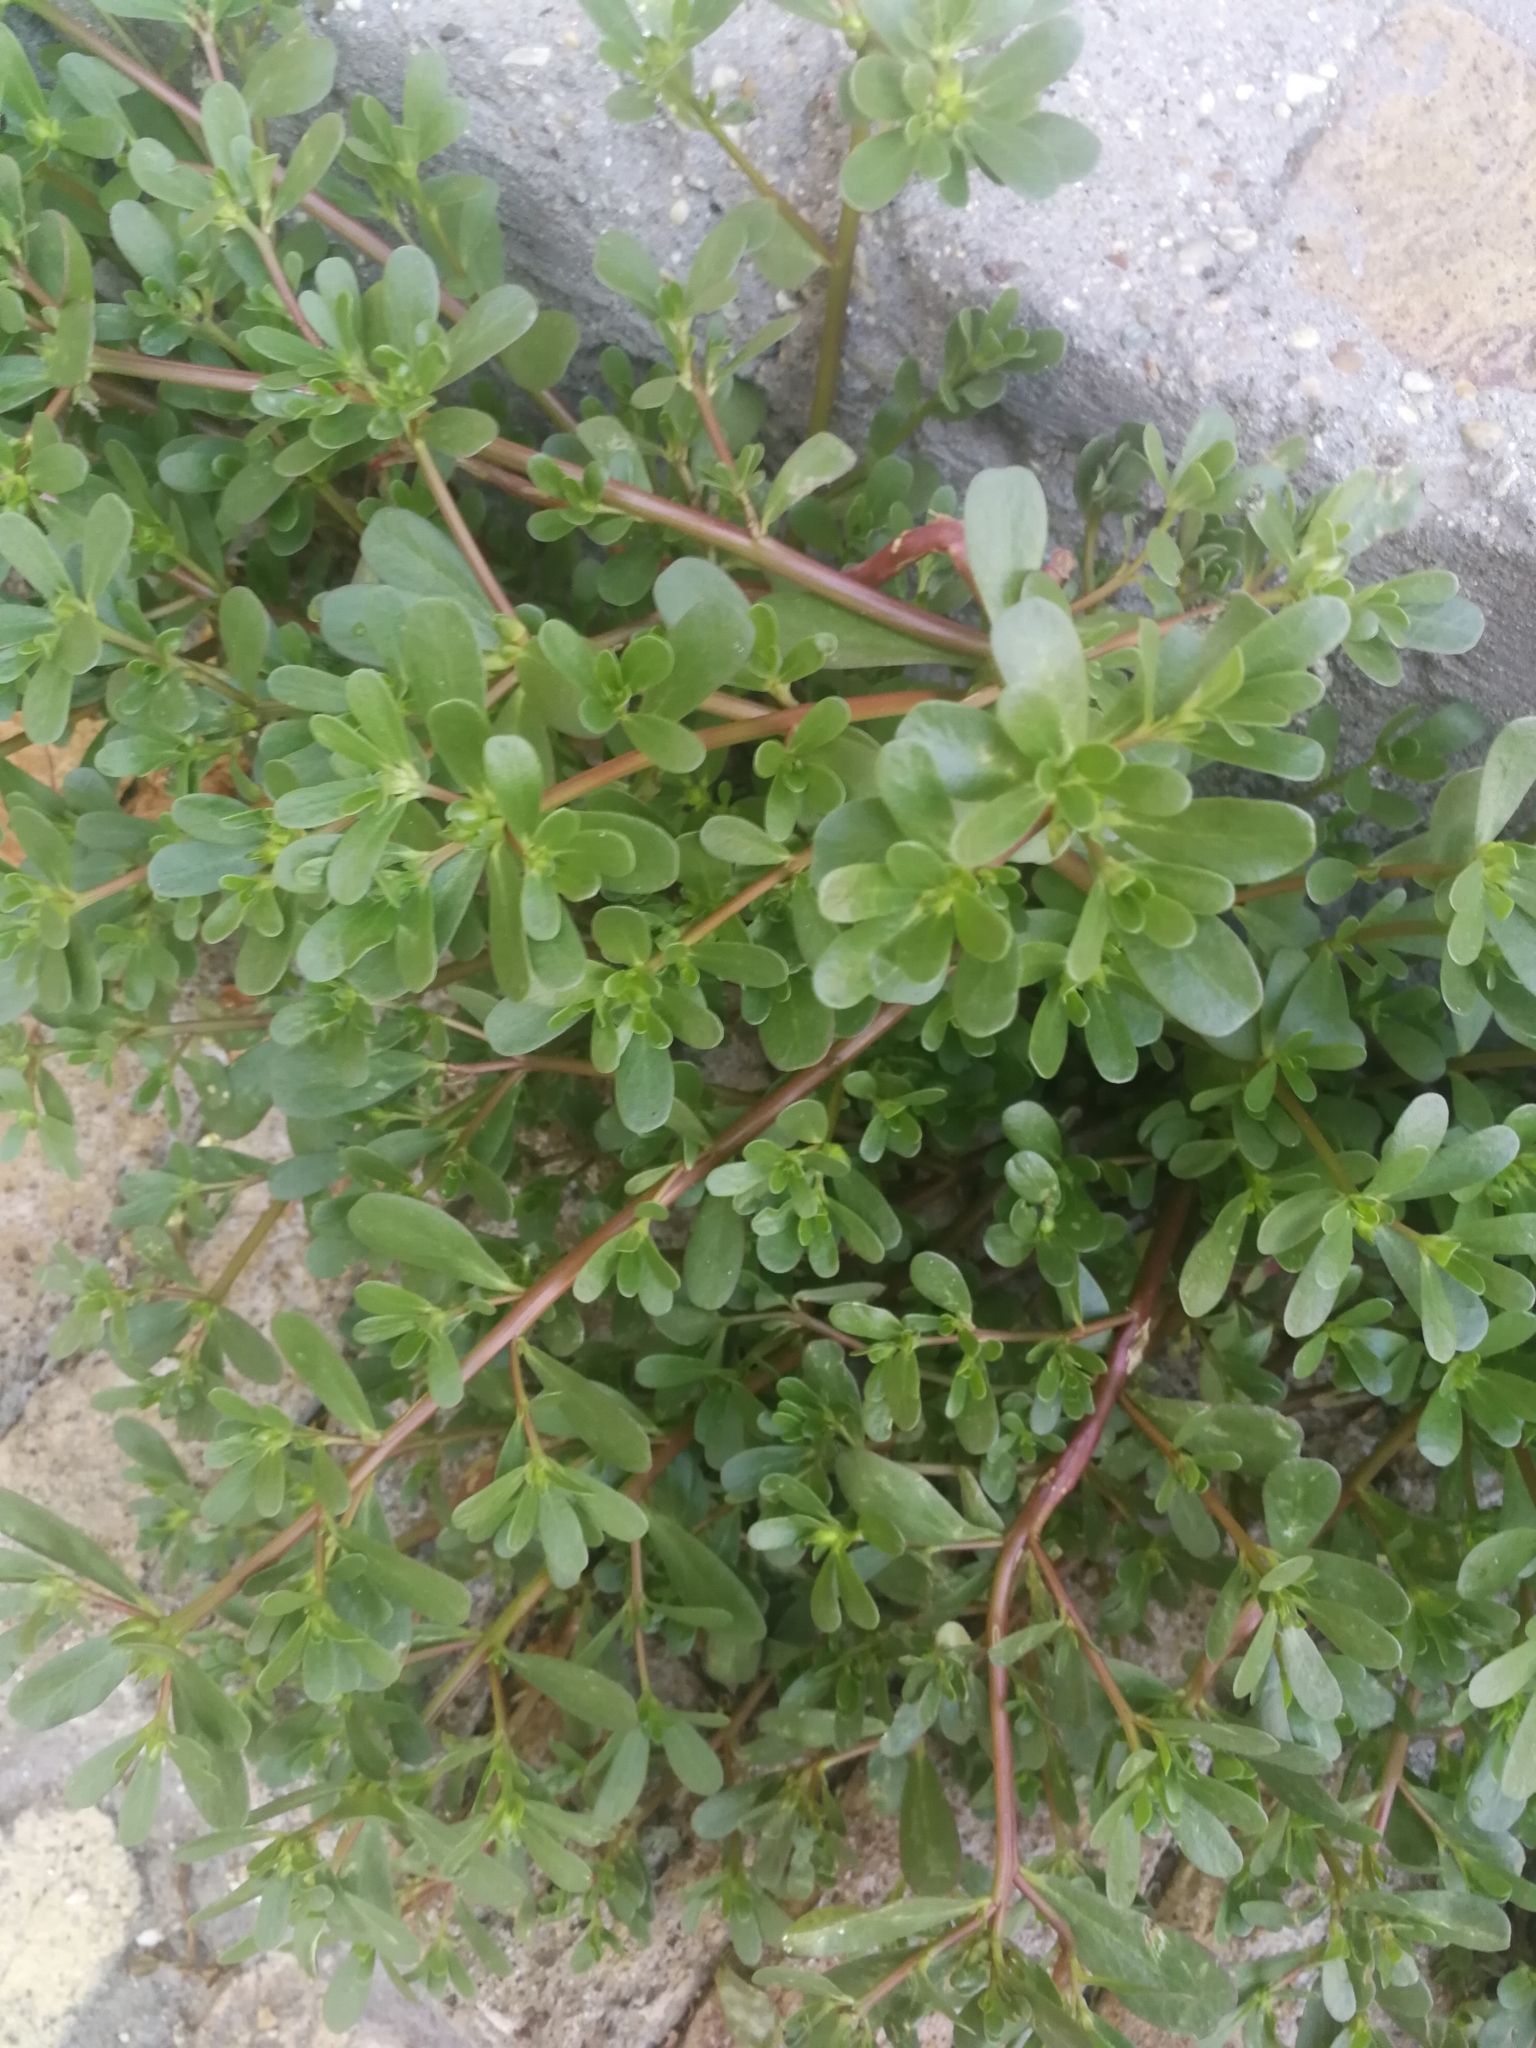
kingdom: Plantae
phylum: Tracheophyta
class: Magnoliopsida
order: Caryophyllales
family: Portulacaceae
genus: Portulaca
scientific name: Portulaca oleracea
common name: Common purslane
